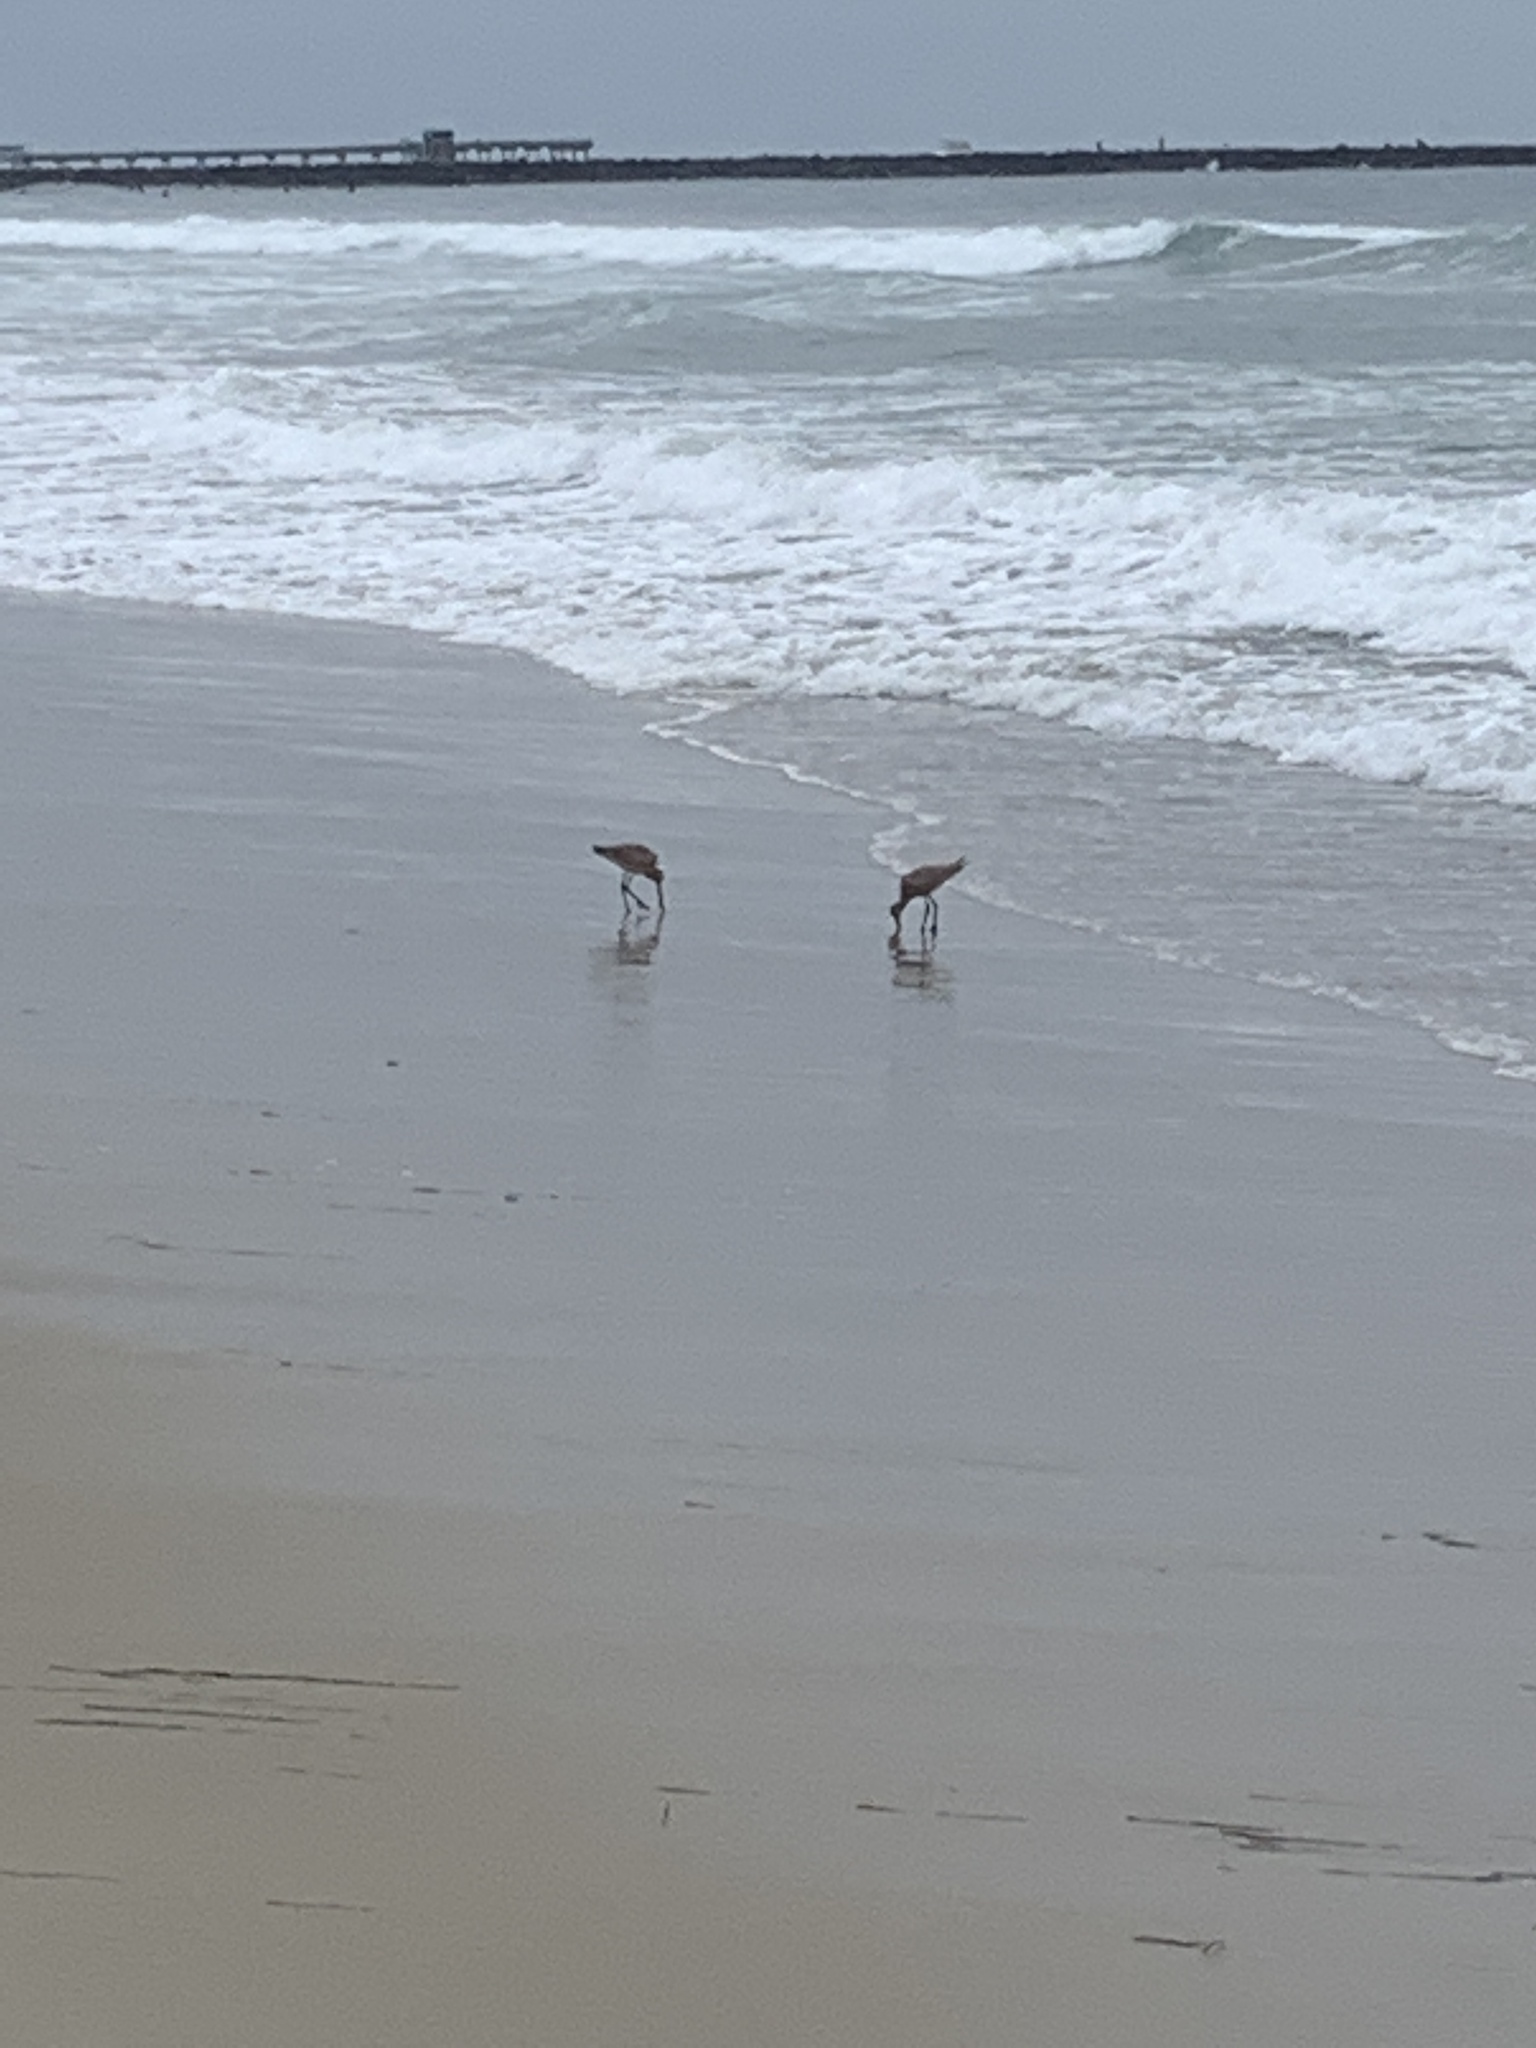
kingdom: Animalia
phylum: Chordata
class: Aves
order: Charadriiformes
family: Scolopacidae
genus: Limosa
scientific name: Limosa fedoa
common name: Marbled godwit
